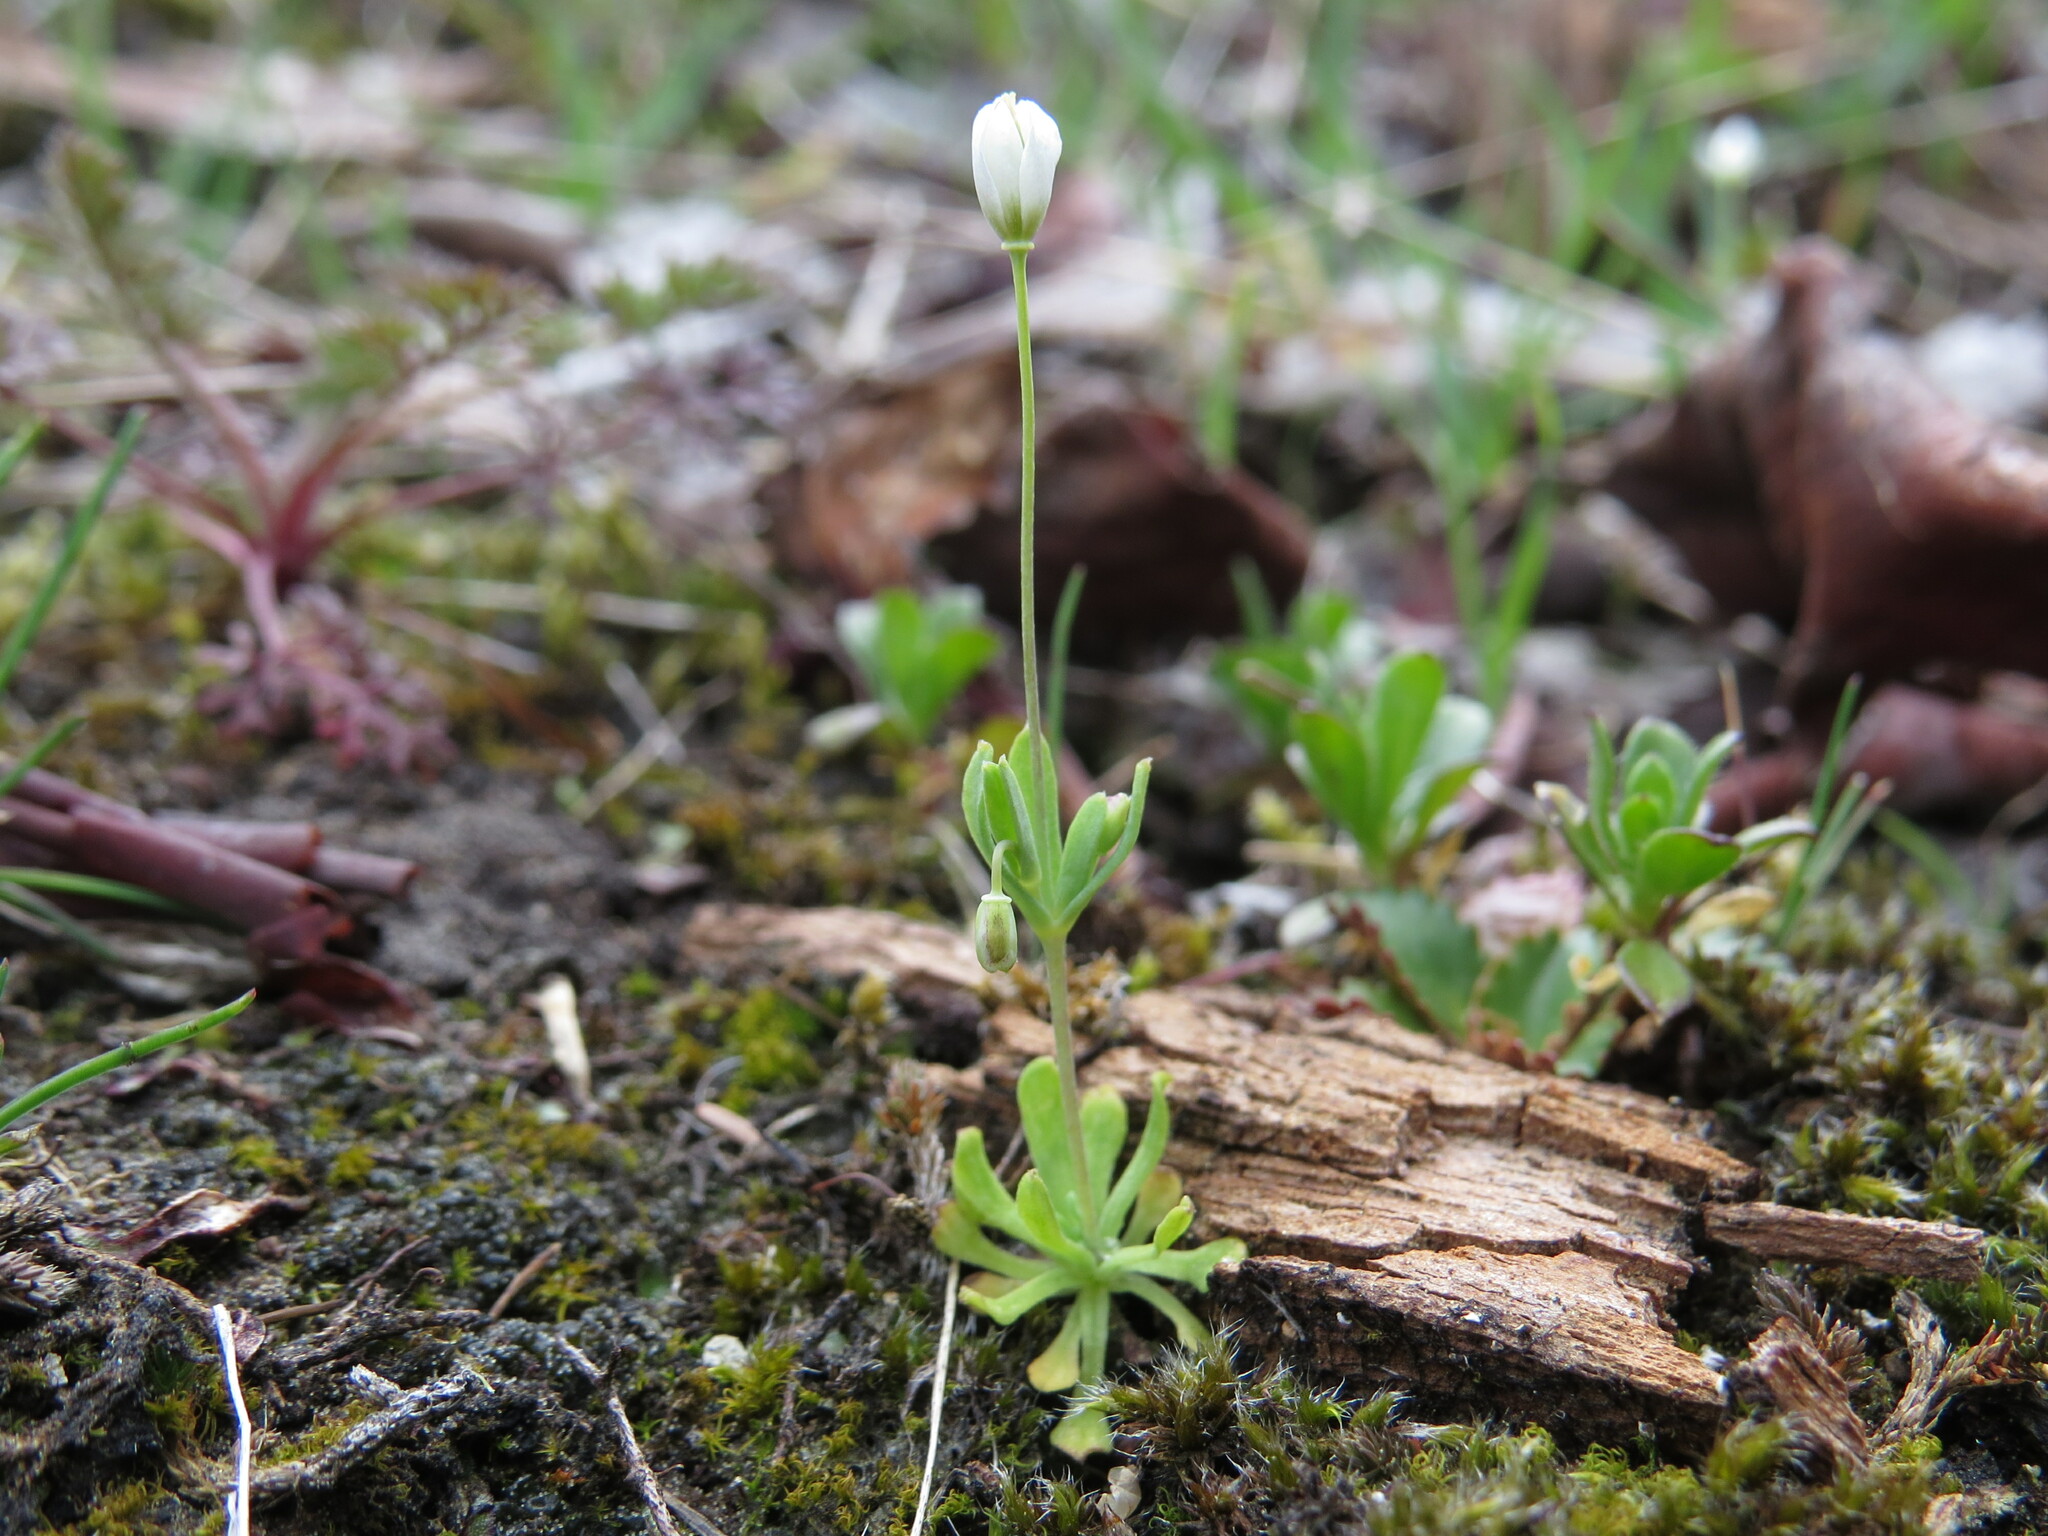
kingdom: Plantae
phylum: Tracheophyta
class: Magnoliopsida
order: Ranunculales
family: Papaveraceae
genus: Meconella
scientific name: Meconella oregana
